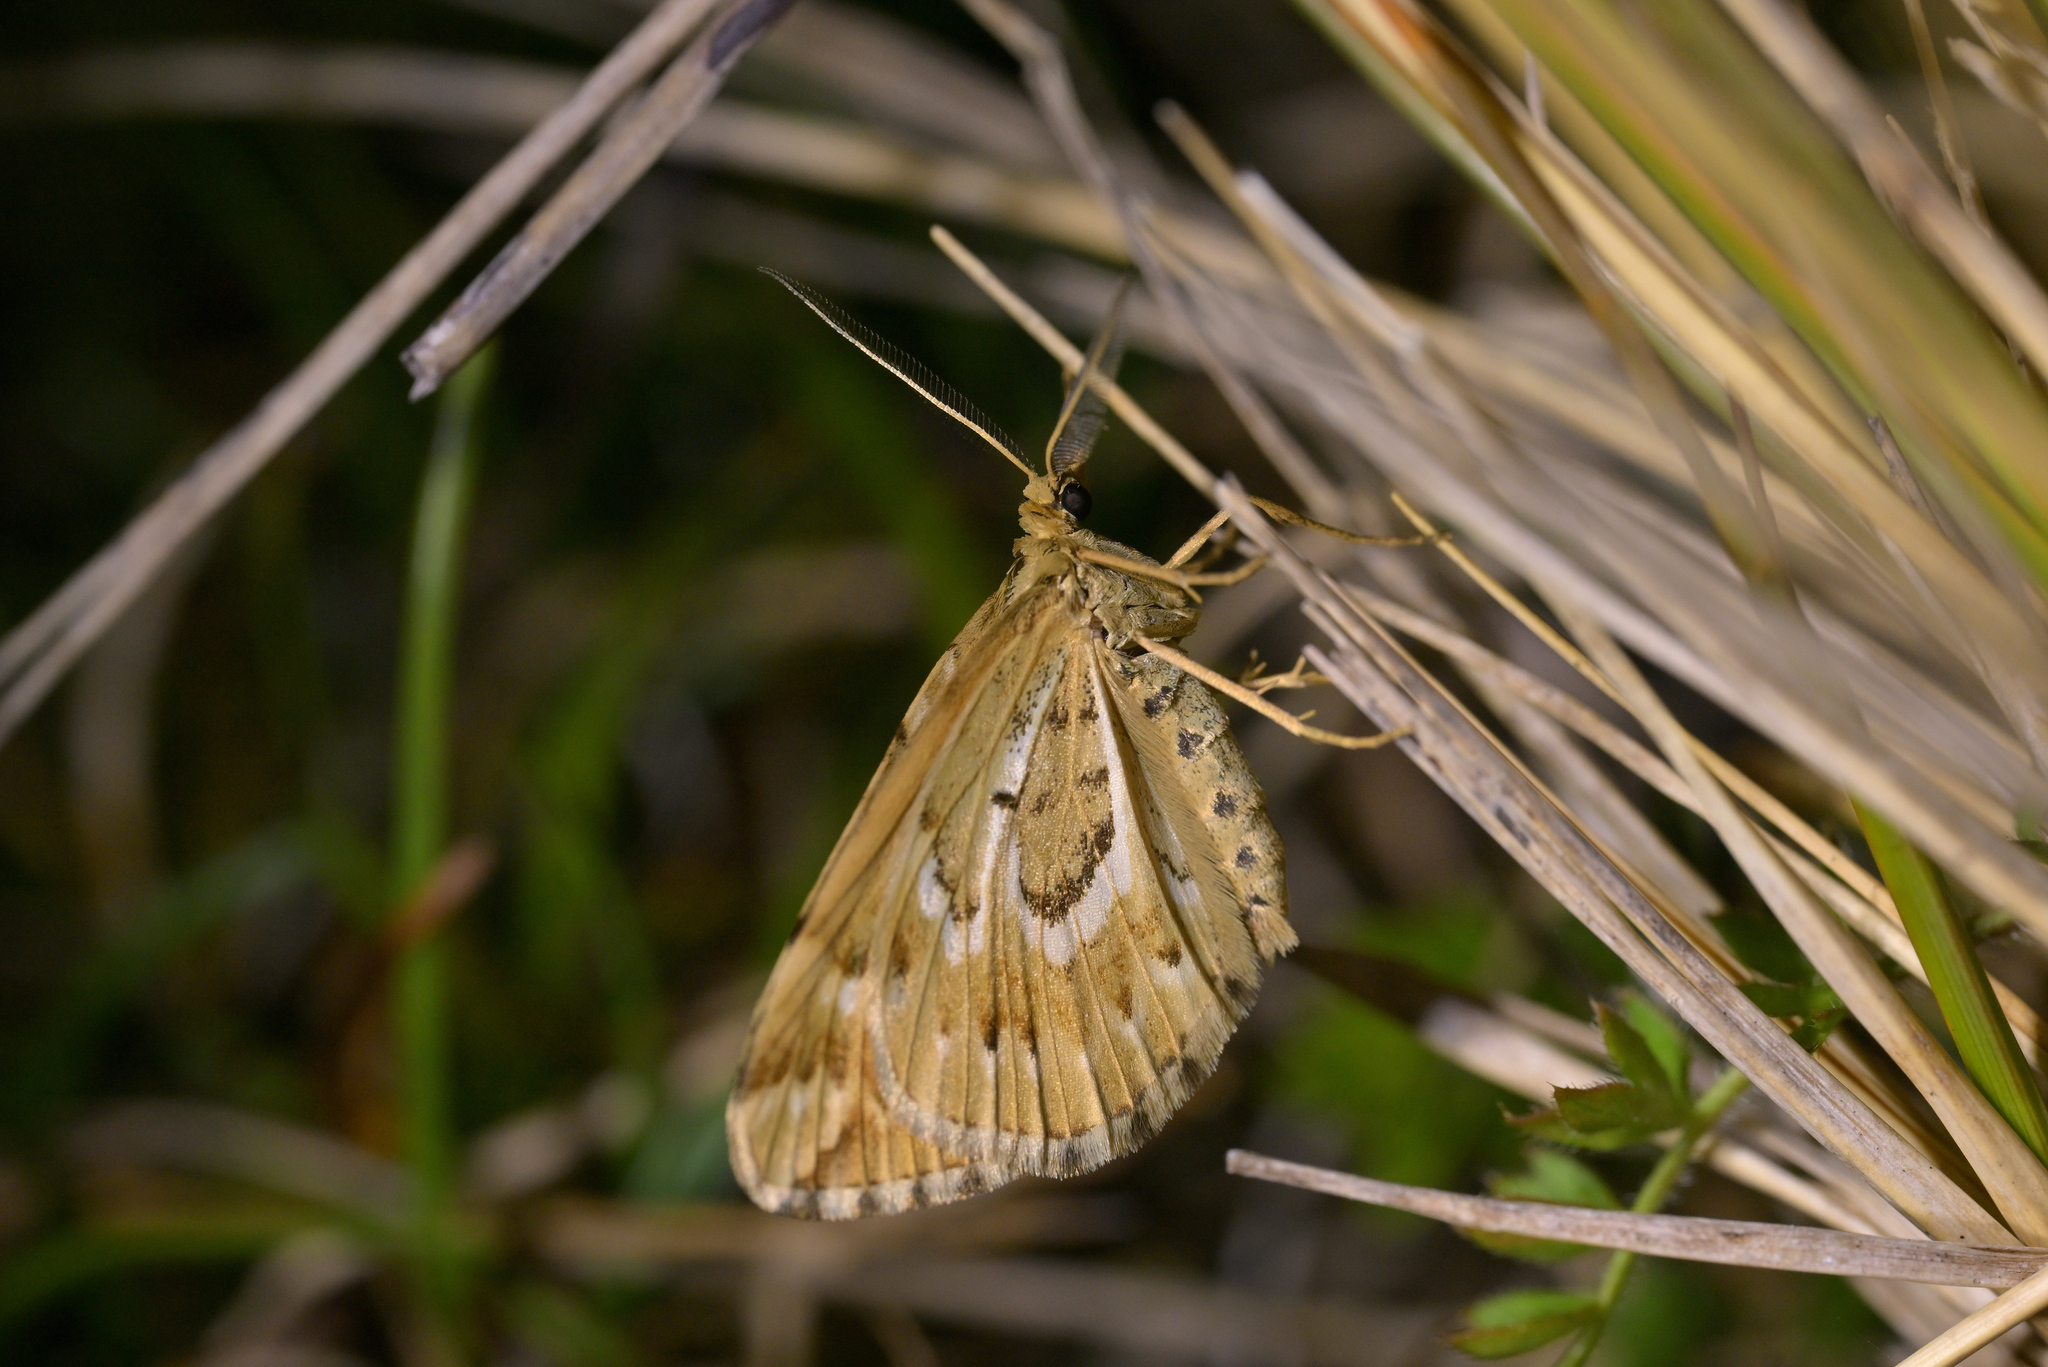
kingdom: Animalia
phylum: Arthropoda
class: Insecta
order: Lepidoptera
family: Geometridae
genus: Asaphodes
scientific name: Asaphodes clarata
